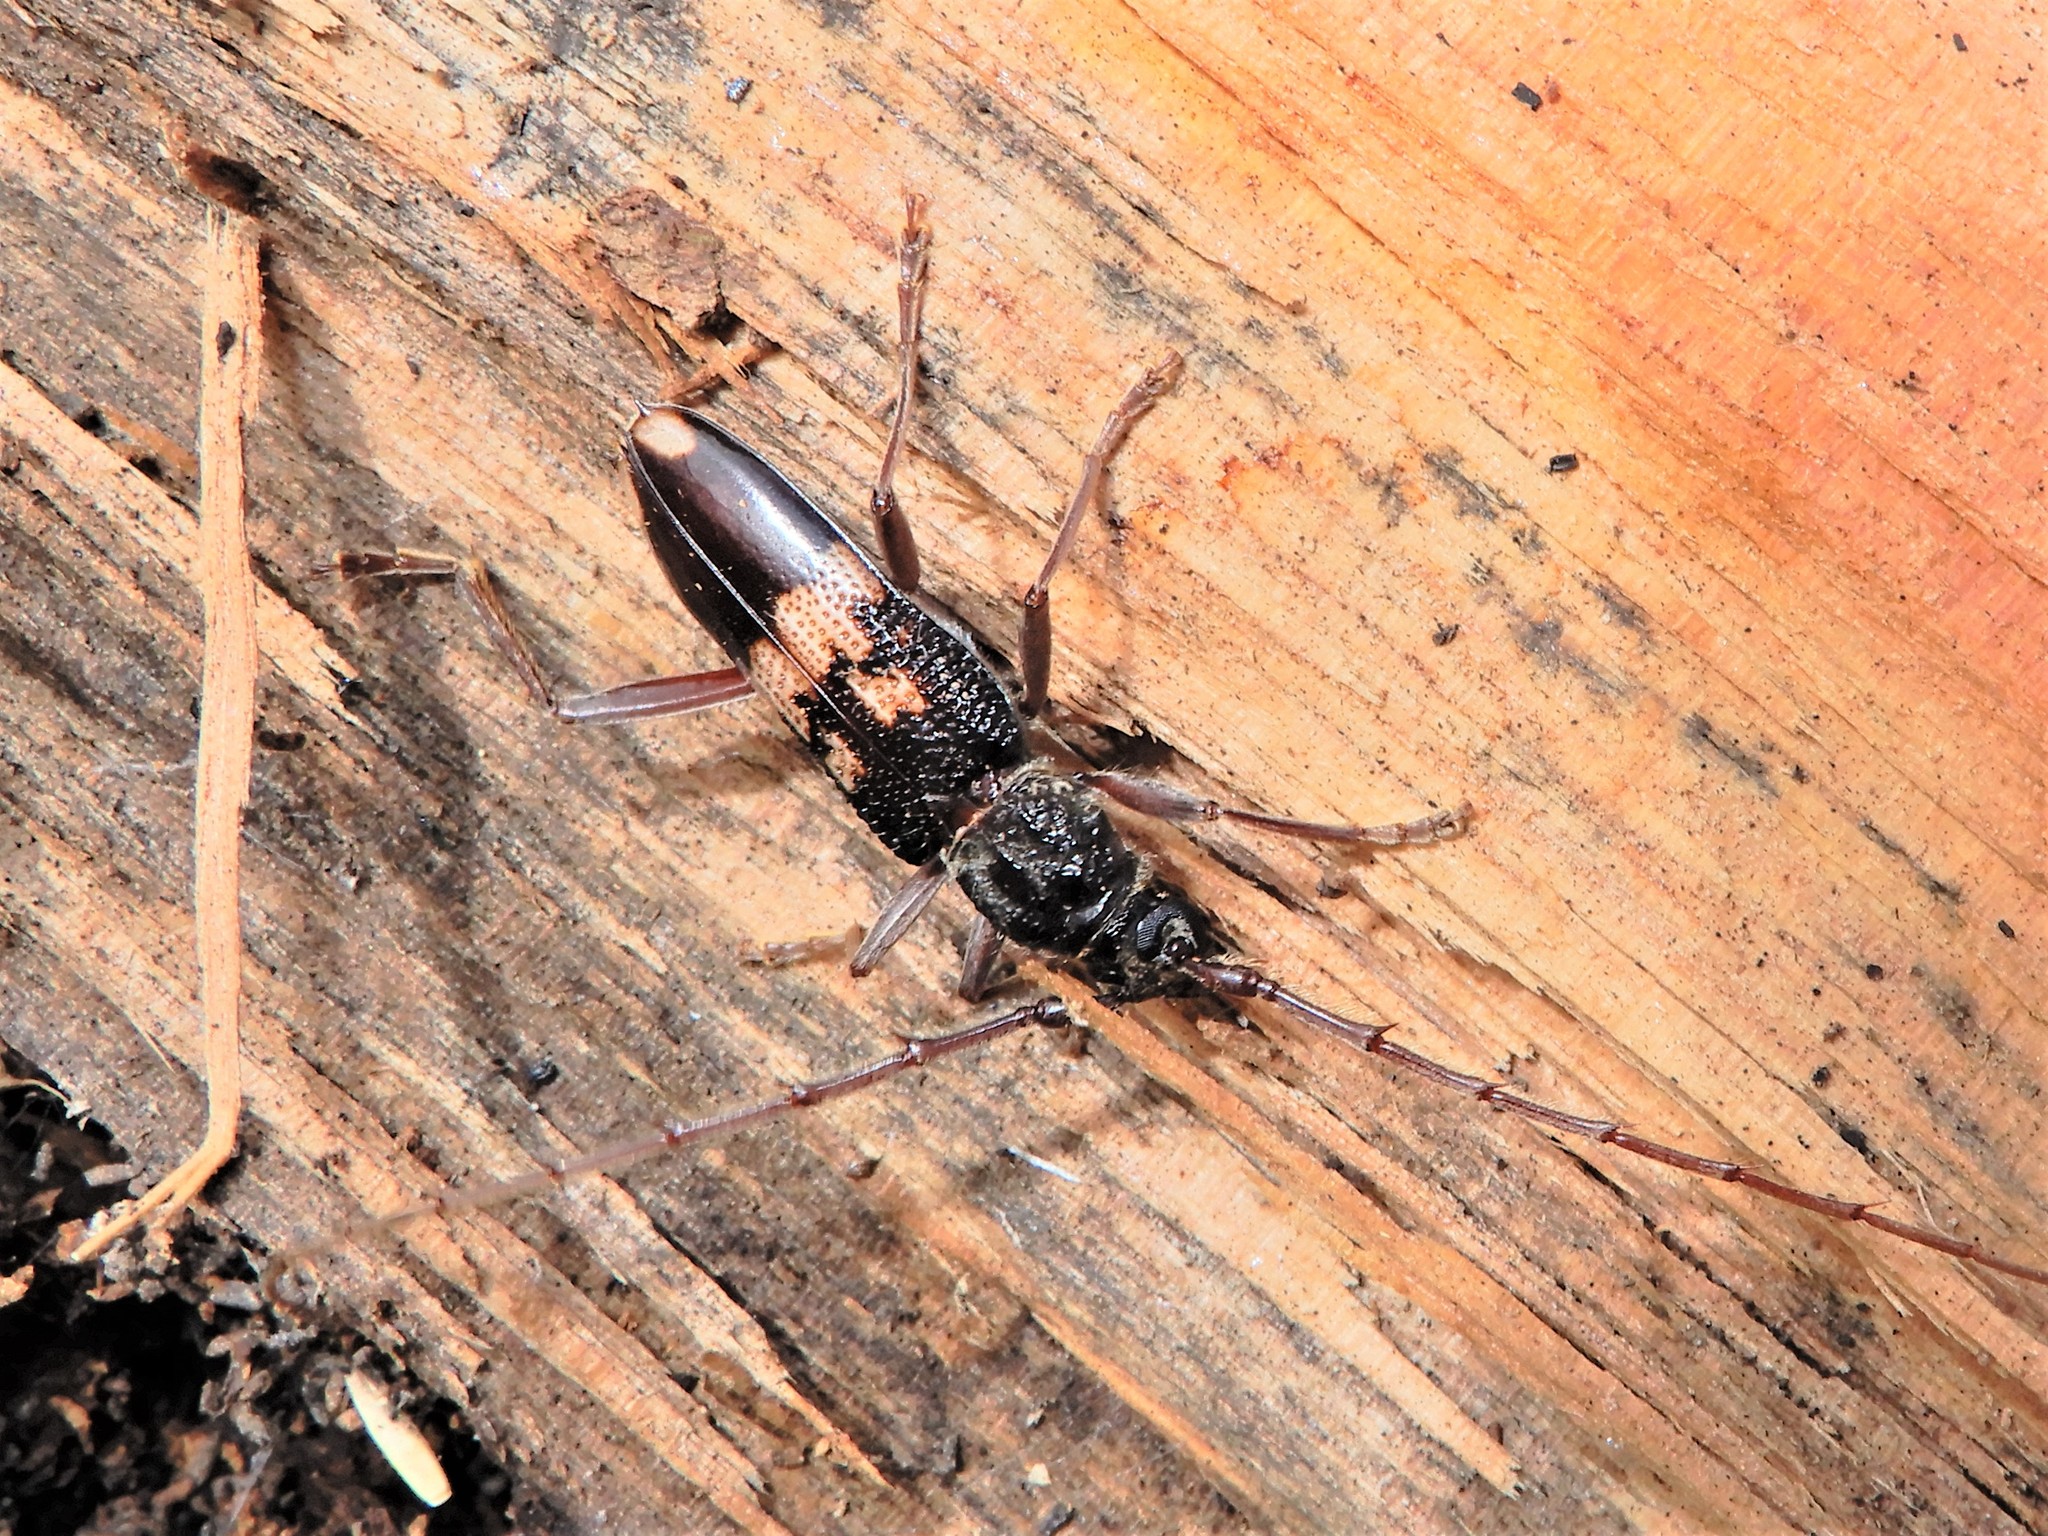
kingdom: Animalia
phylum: Arthropoda
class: Insecta
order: Coleoptera
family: Cerambycidae
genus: Phoracantha
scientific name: Phoracantha semipunctata
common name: Eucalyptus longhorn borer
